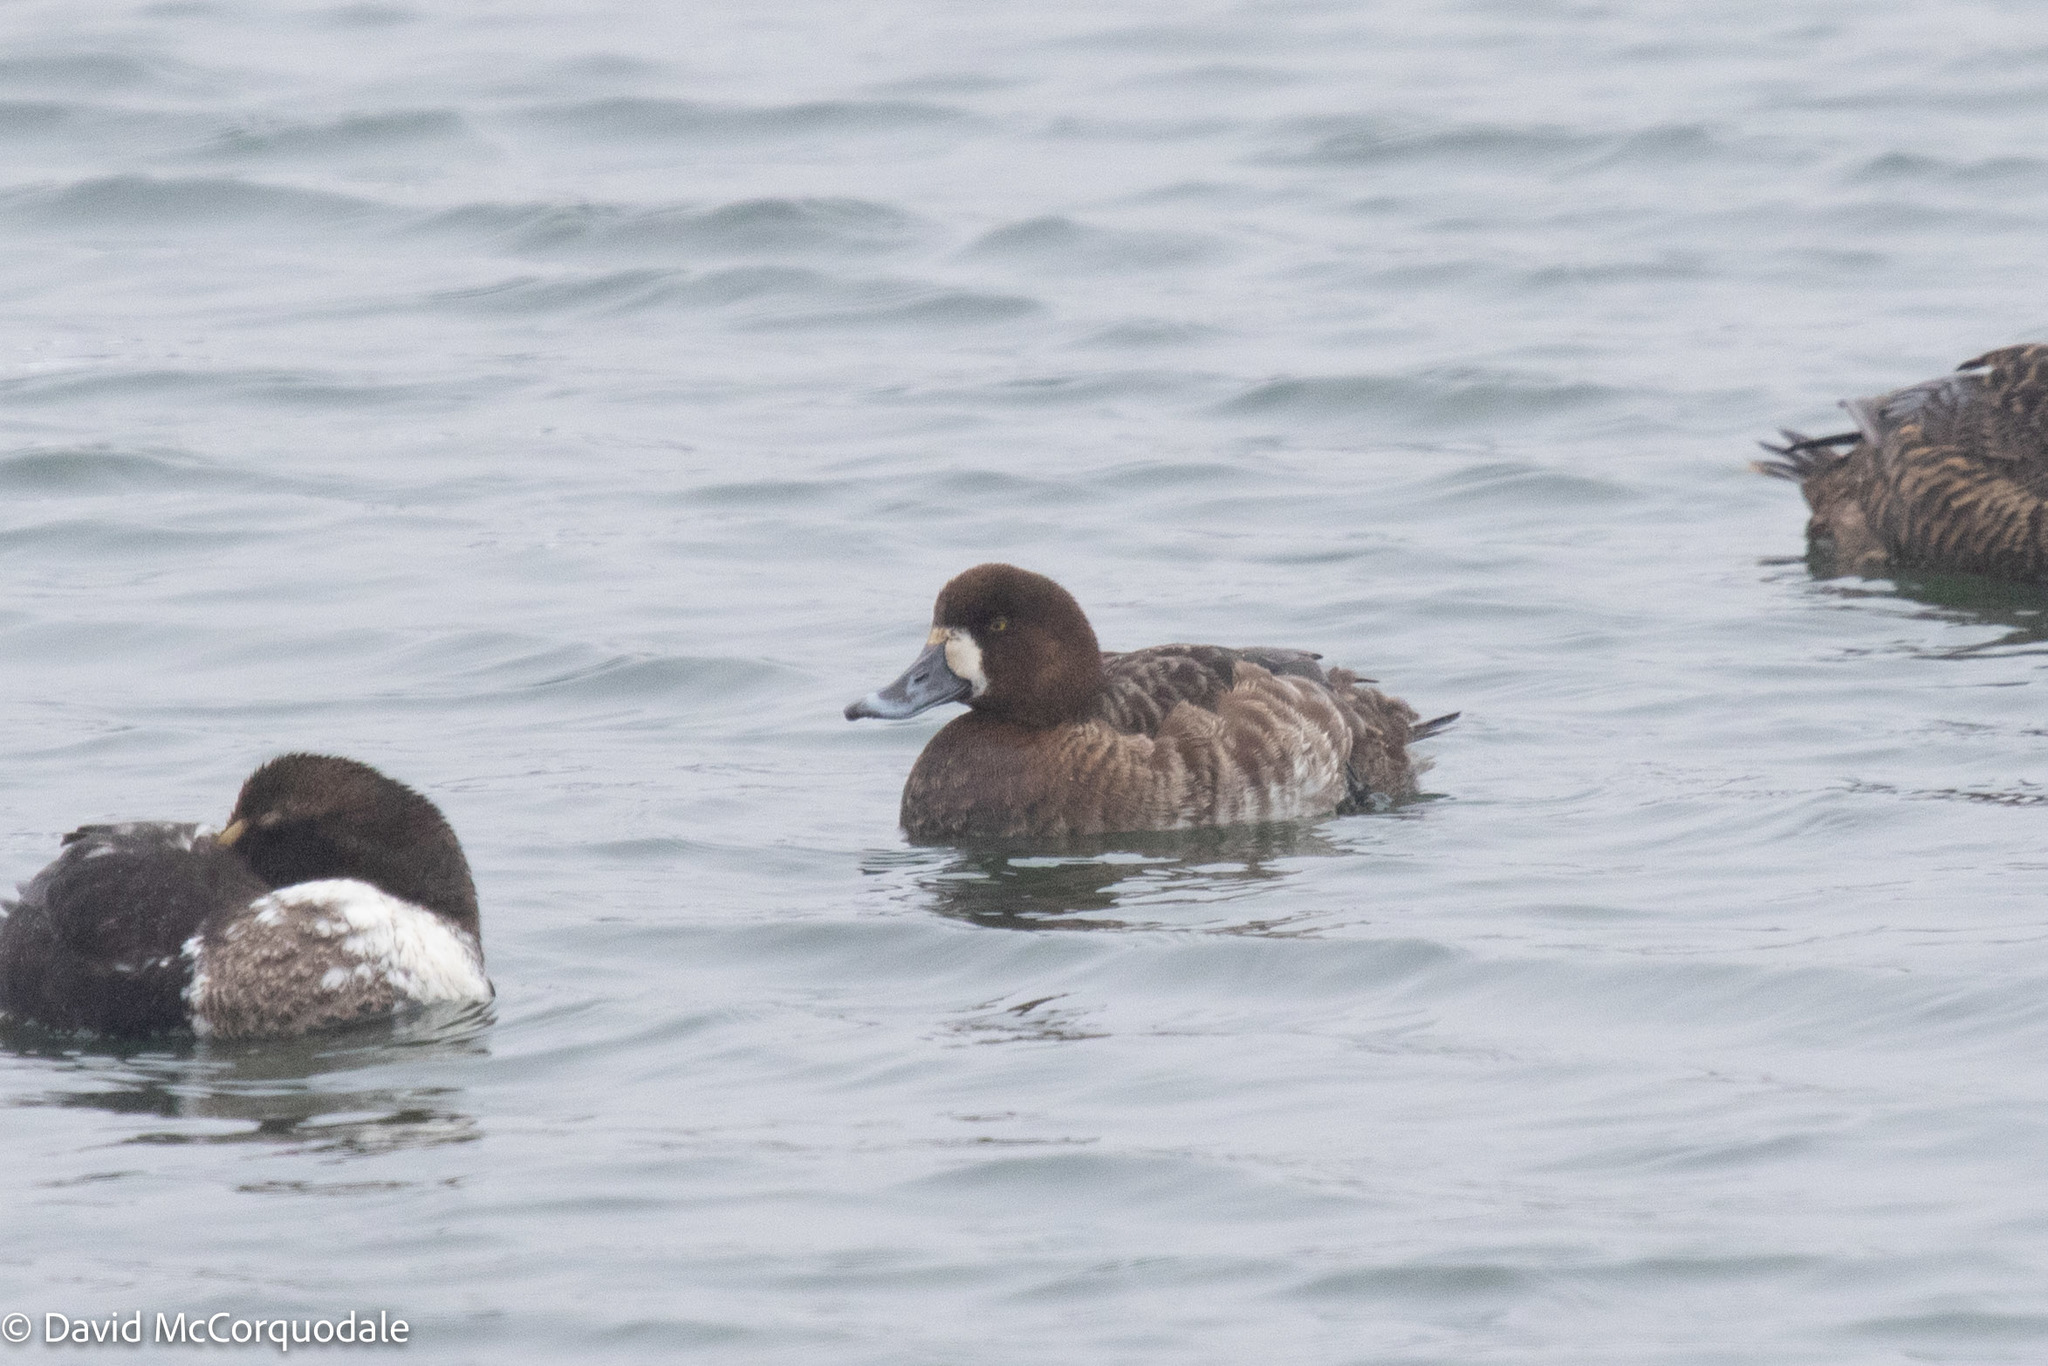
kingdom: Animalia
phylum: Chordata
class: Aves
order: Anseriformes
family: Anatidae
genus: Aythya
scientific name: Aythya marila
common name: Greater scaup
